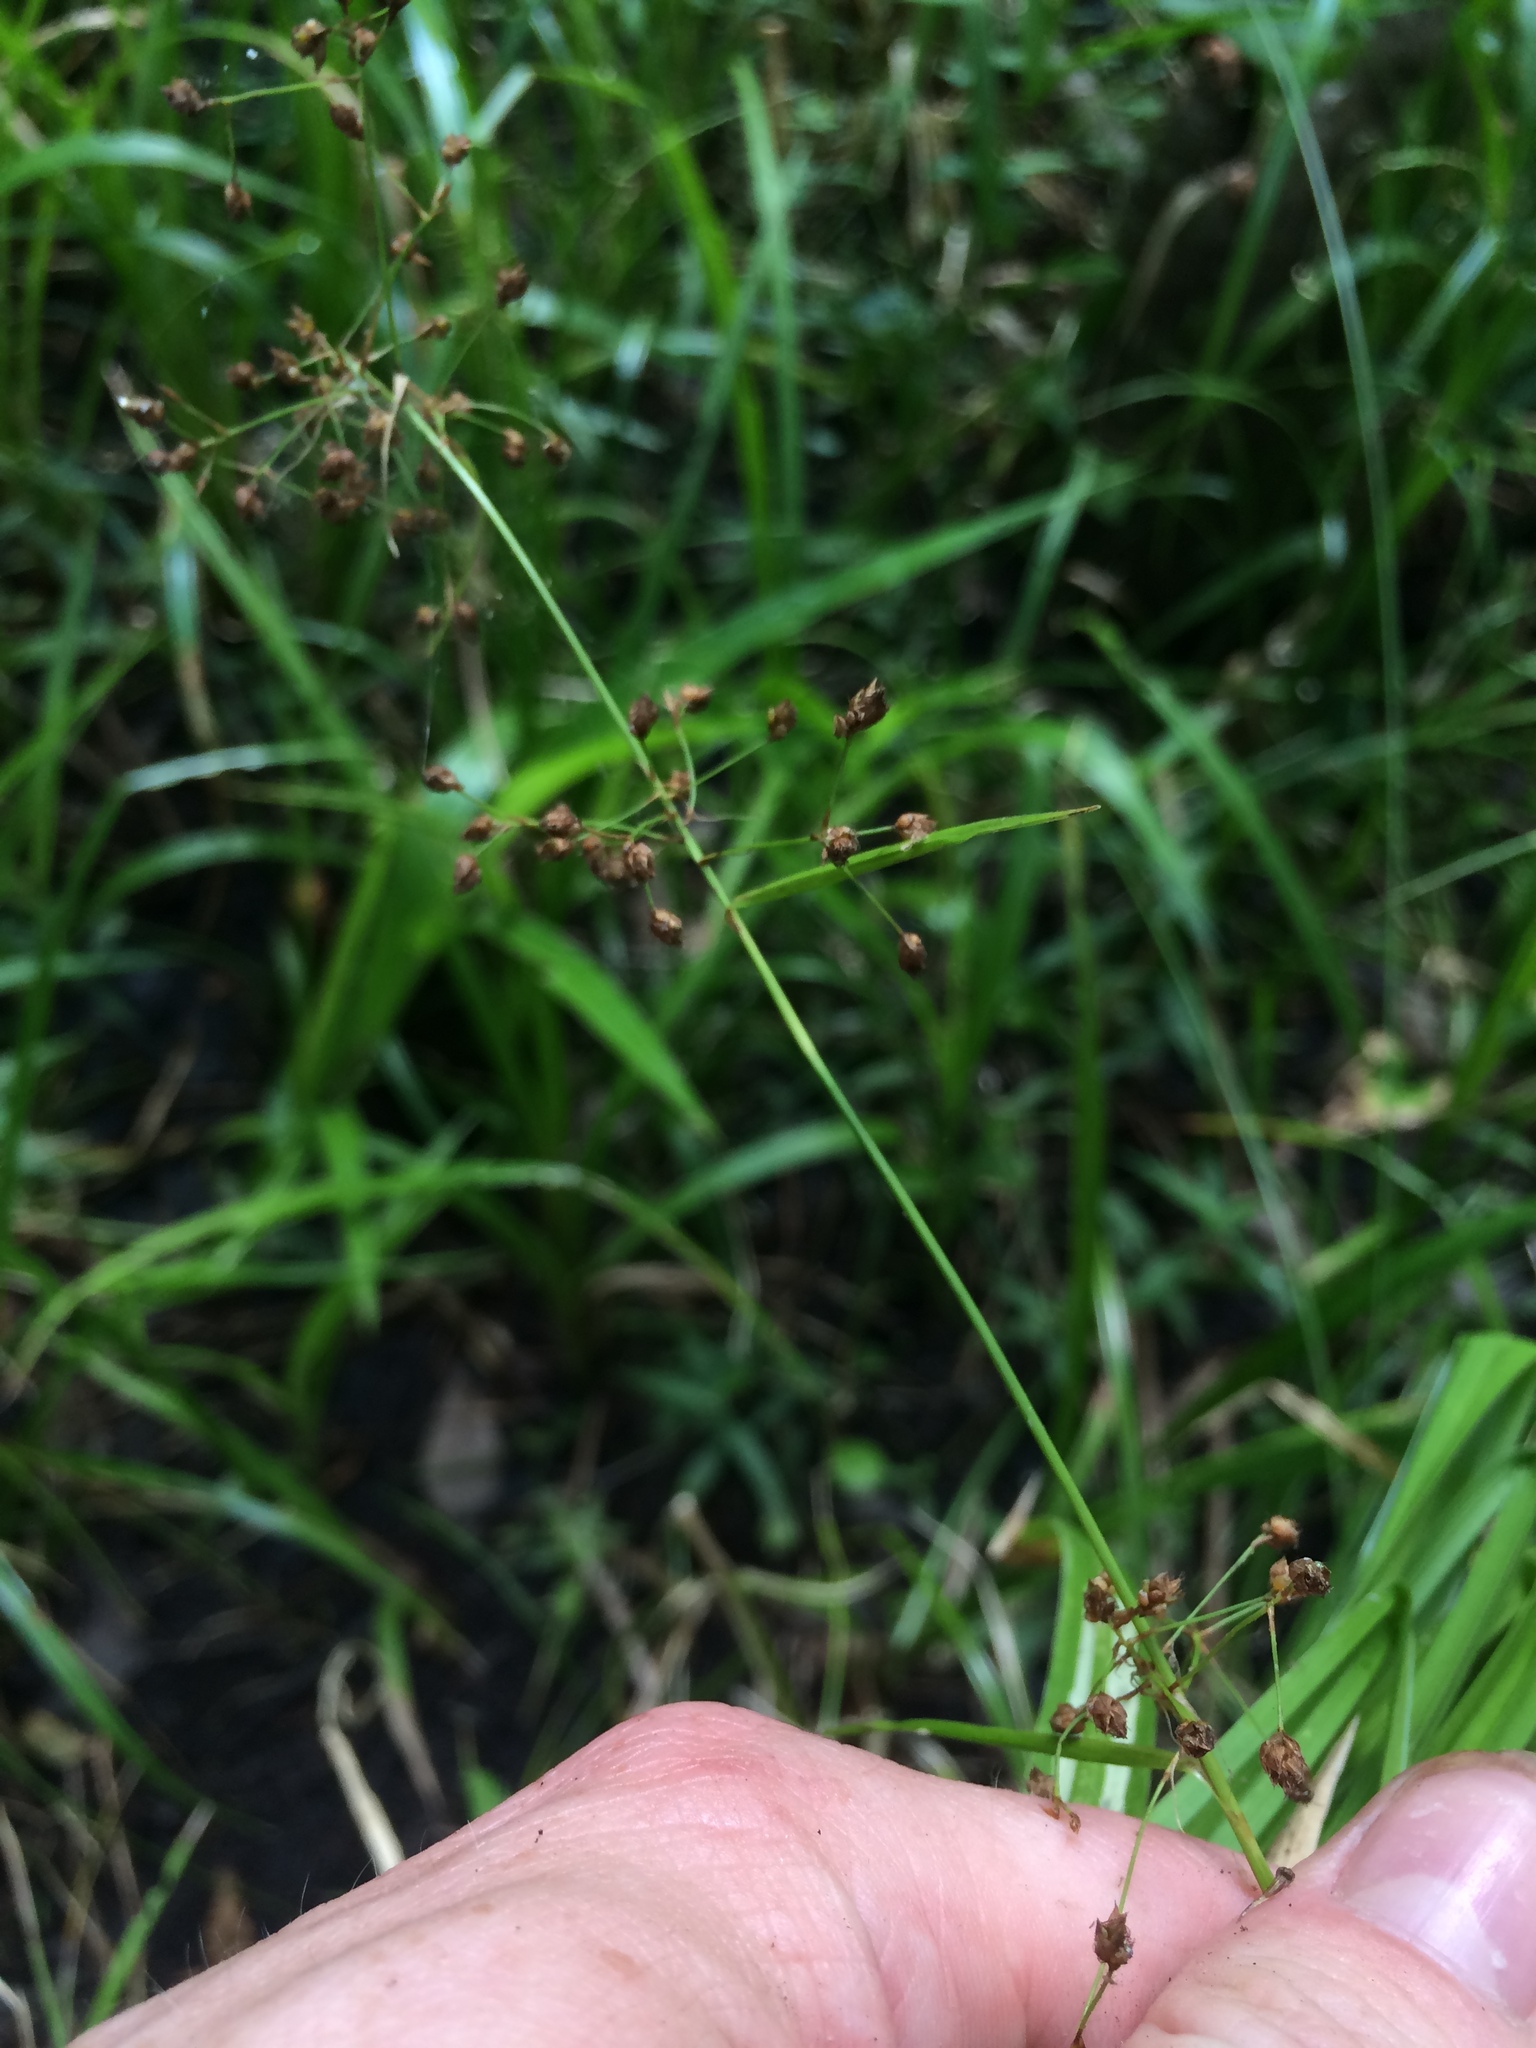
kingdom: Plantae
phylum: Tracheophyta
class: Liliopsida
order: Poales
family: Cyperaceae
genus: Rhynchospora
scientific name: Rhynchospora miliacea
